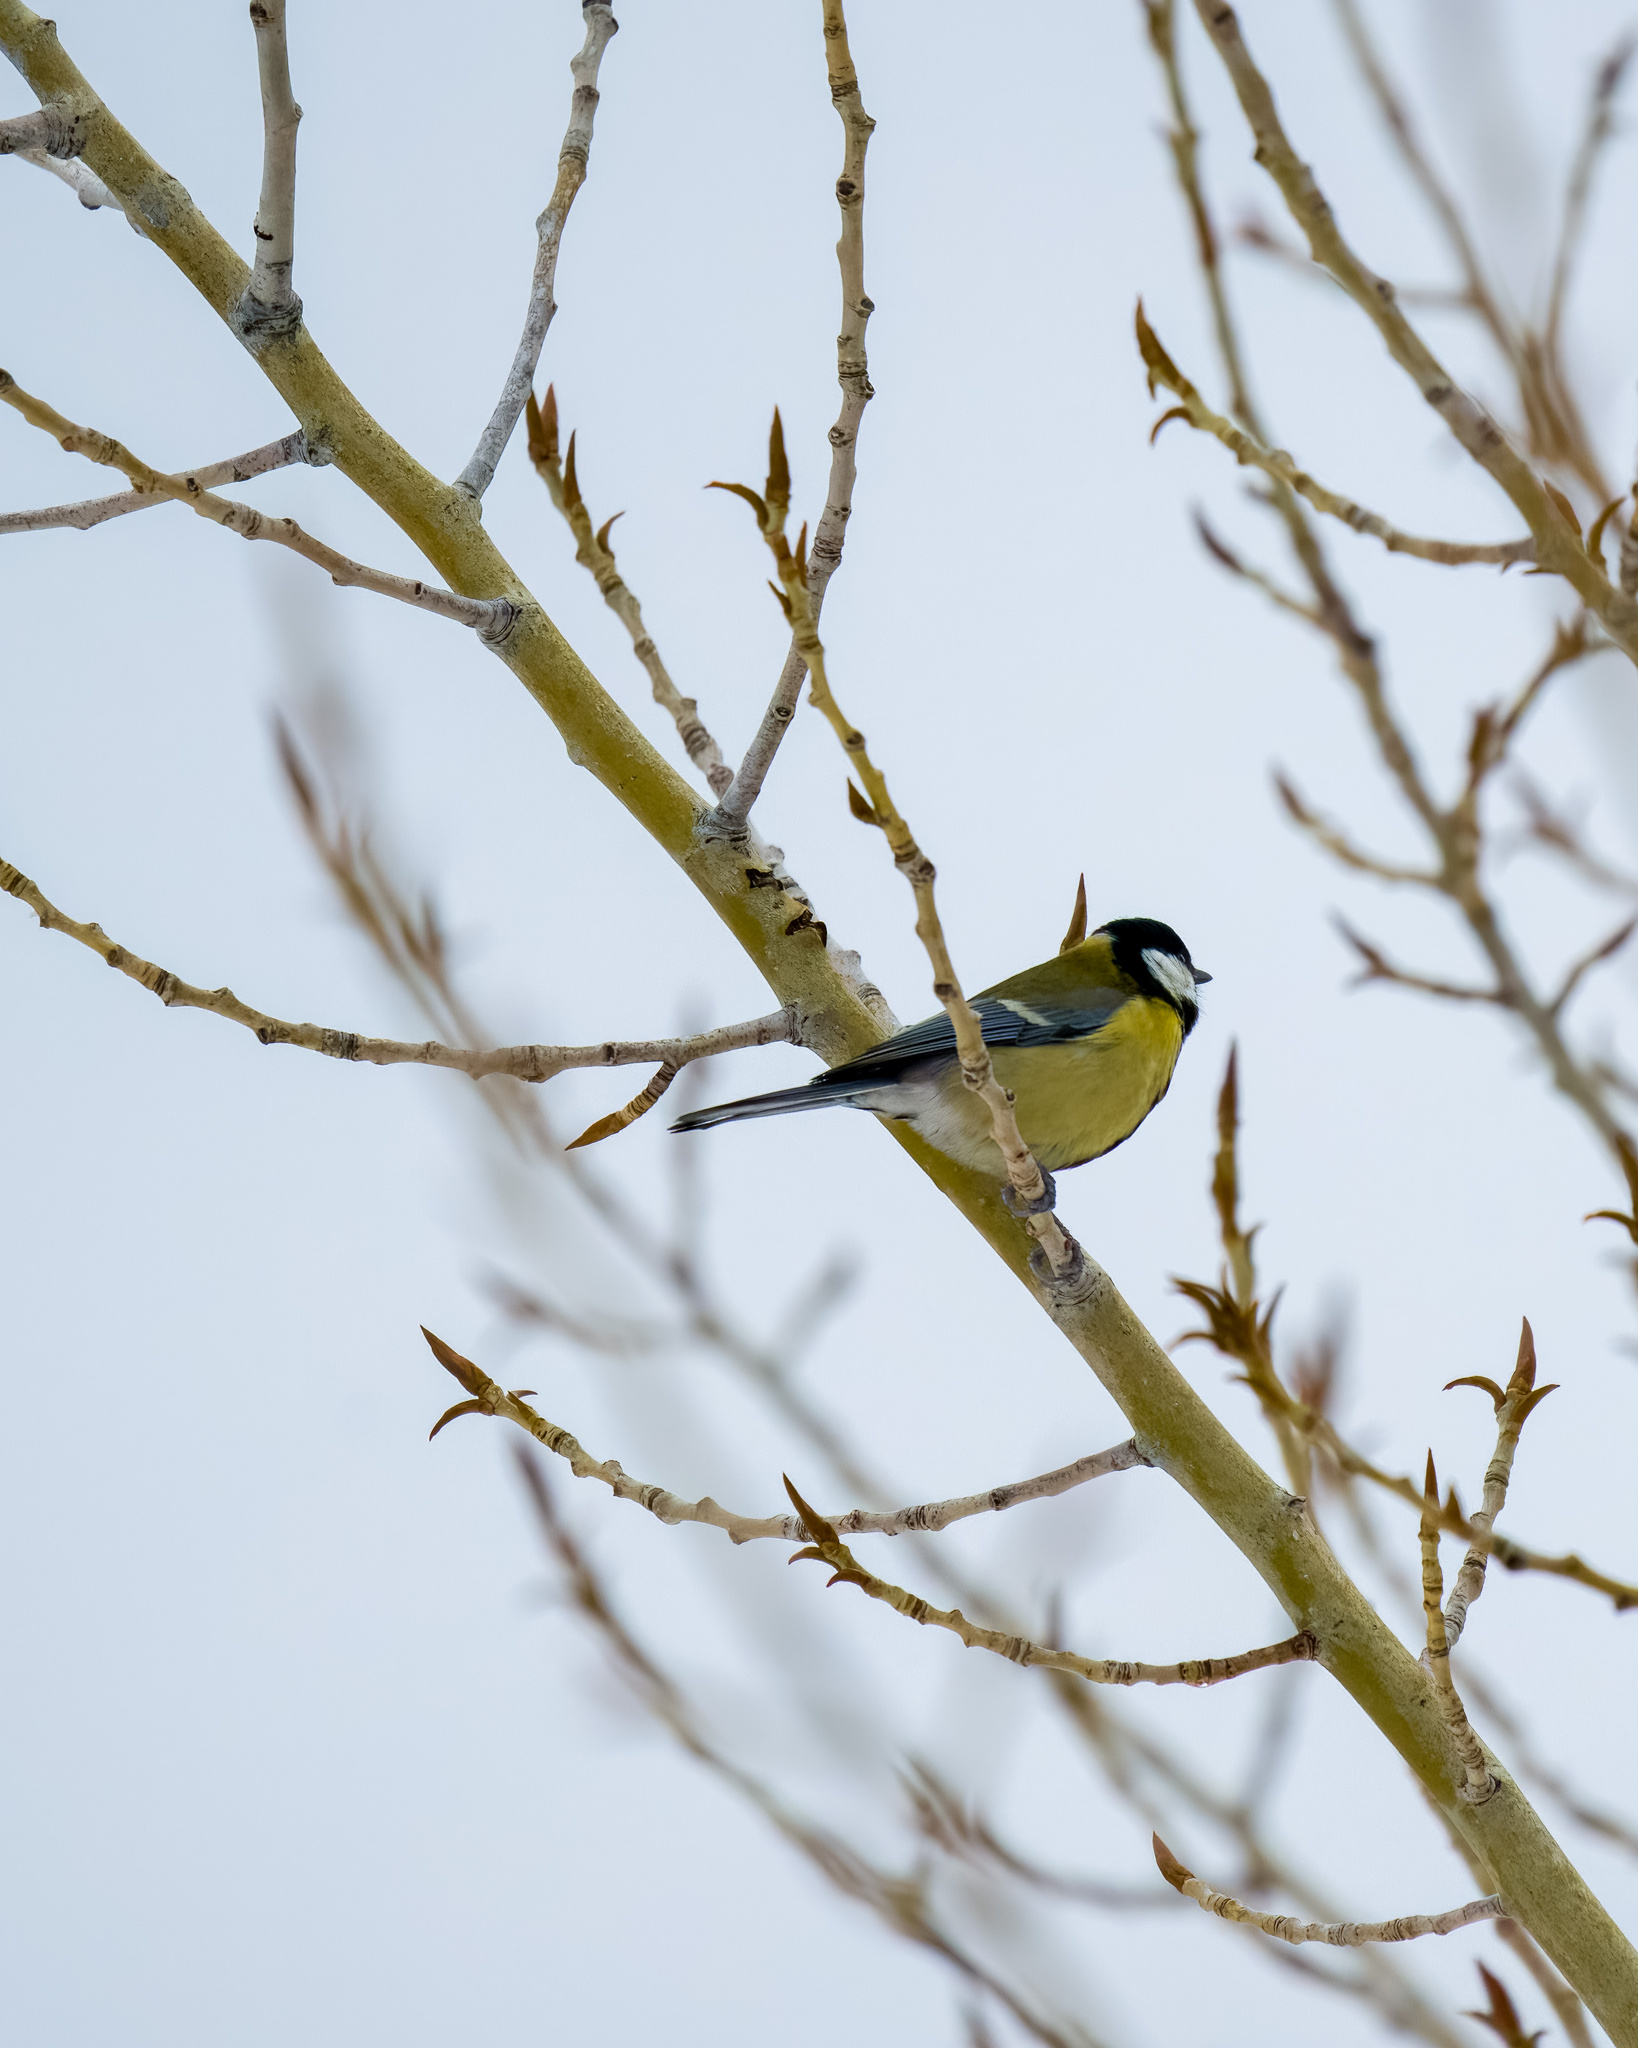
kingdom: Animalia
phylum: Chordata
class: Aves
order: Passeriformes
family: Paridae
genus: Parus
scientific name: Parus major
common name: Great tit
